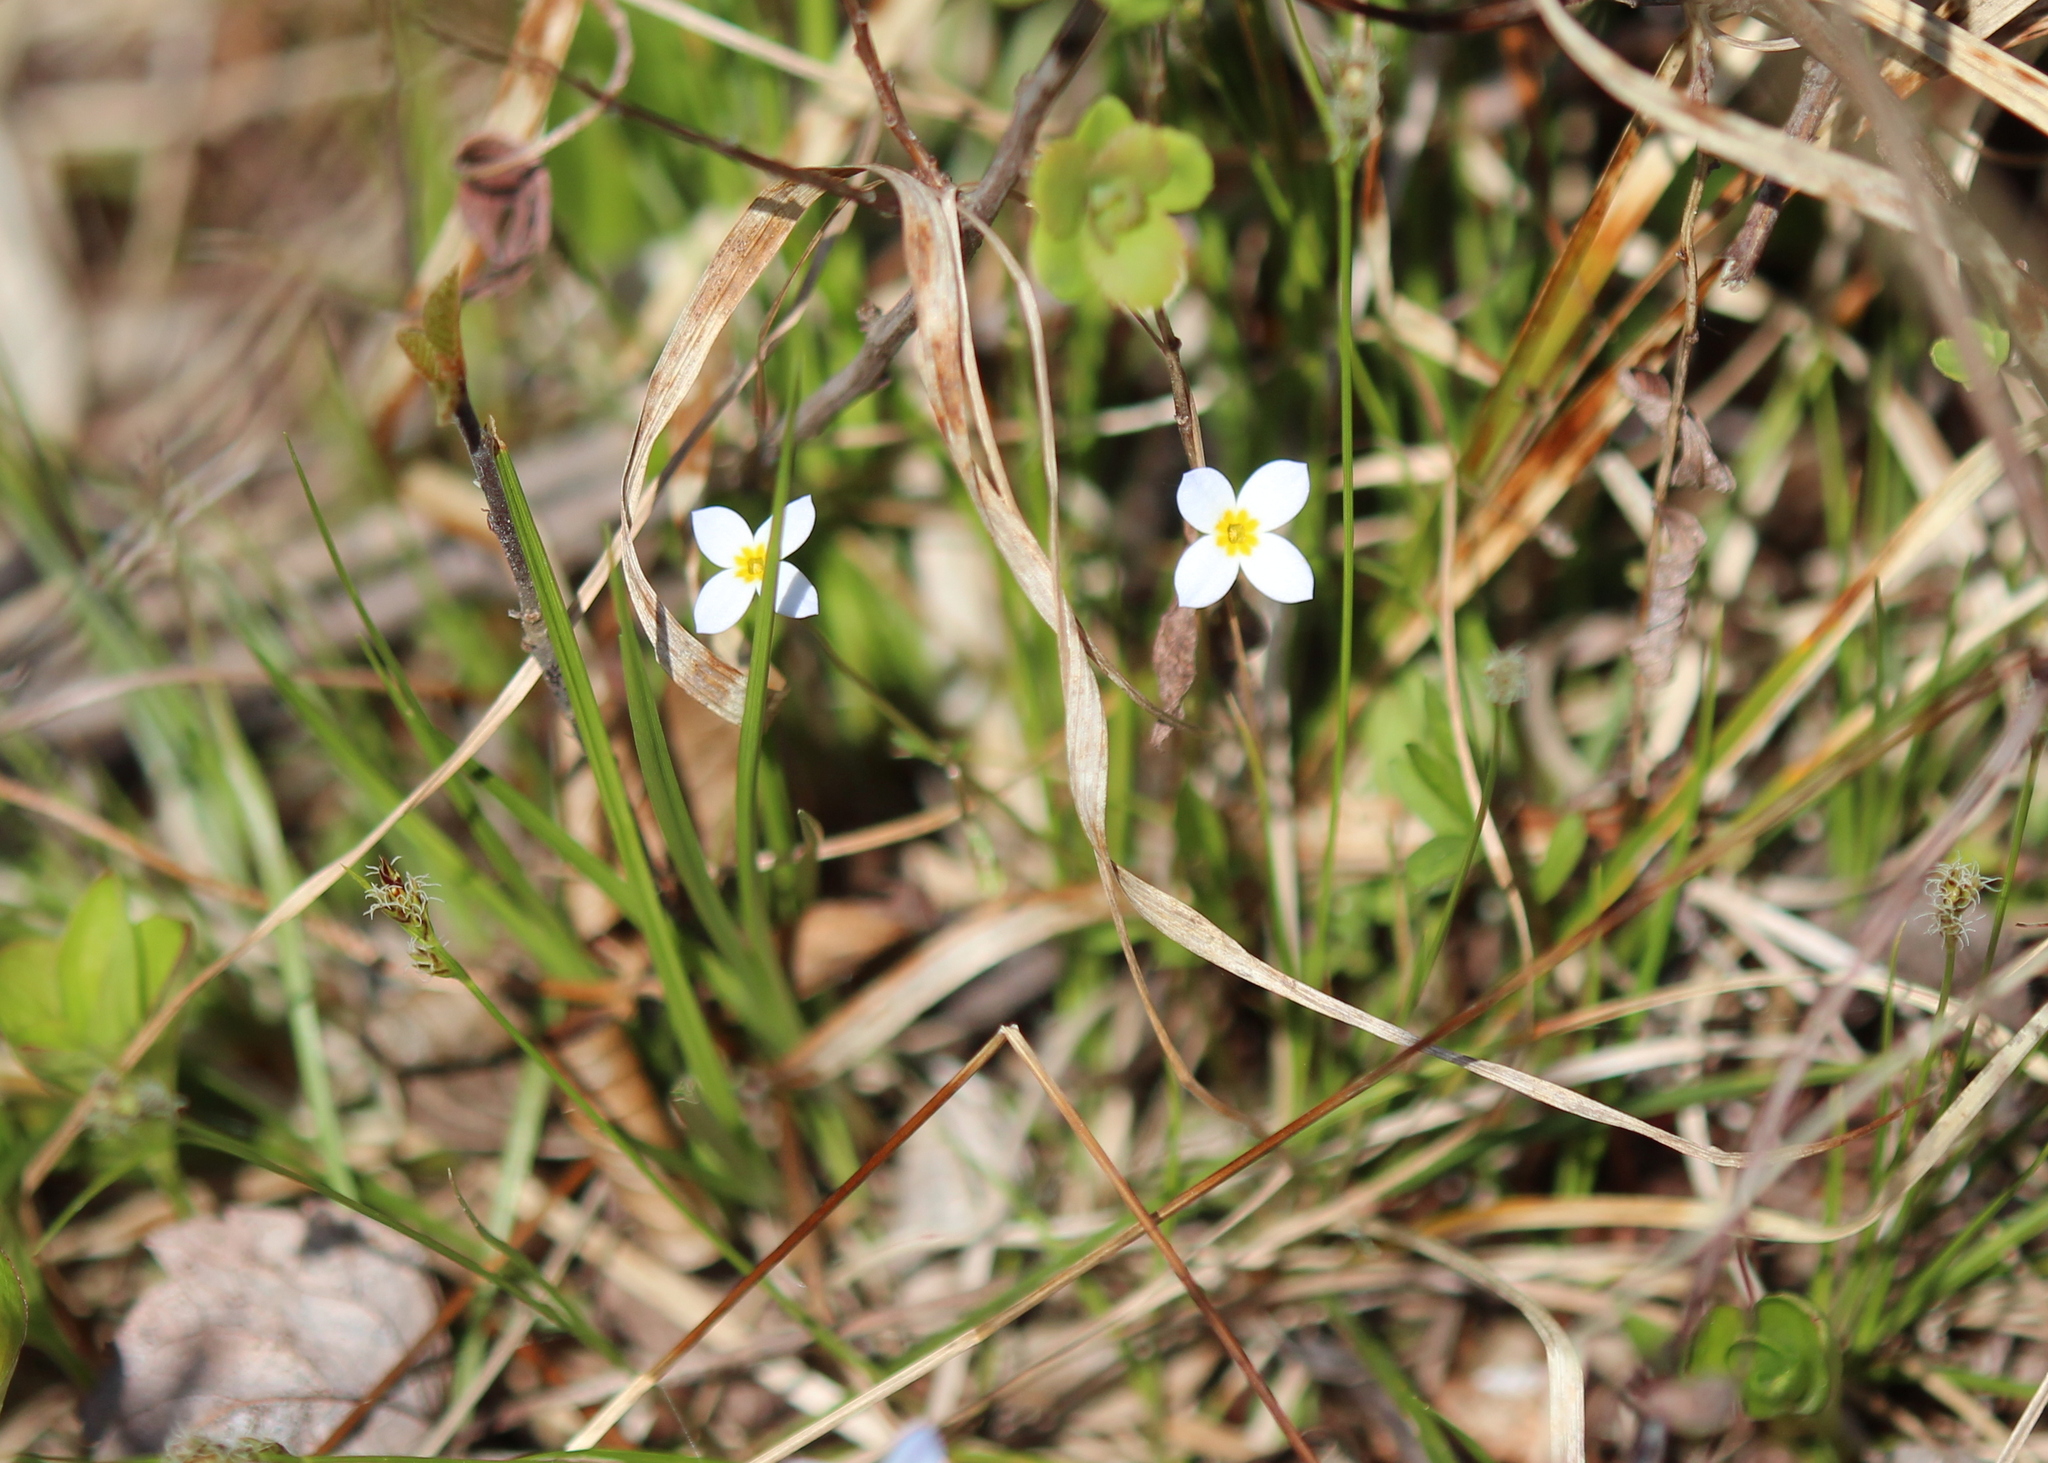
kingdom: Plantae
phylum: Tracheophyta
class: Magnoliopsida
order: Gentianales
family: Rubiaceae
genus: Houstonia
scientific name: Houstonia caerulea
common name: Bluets
